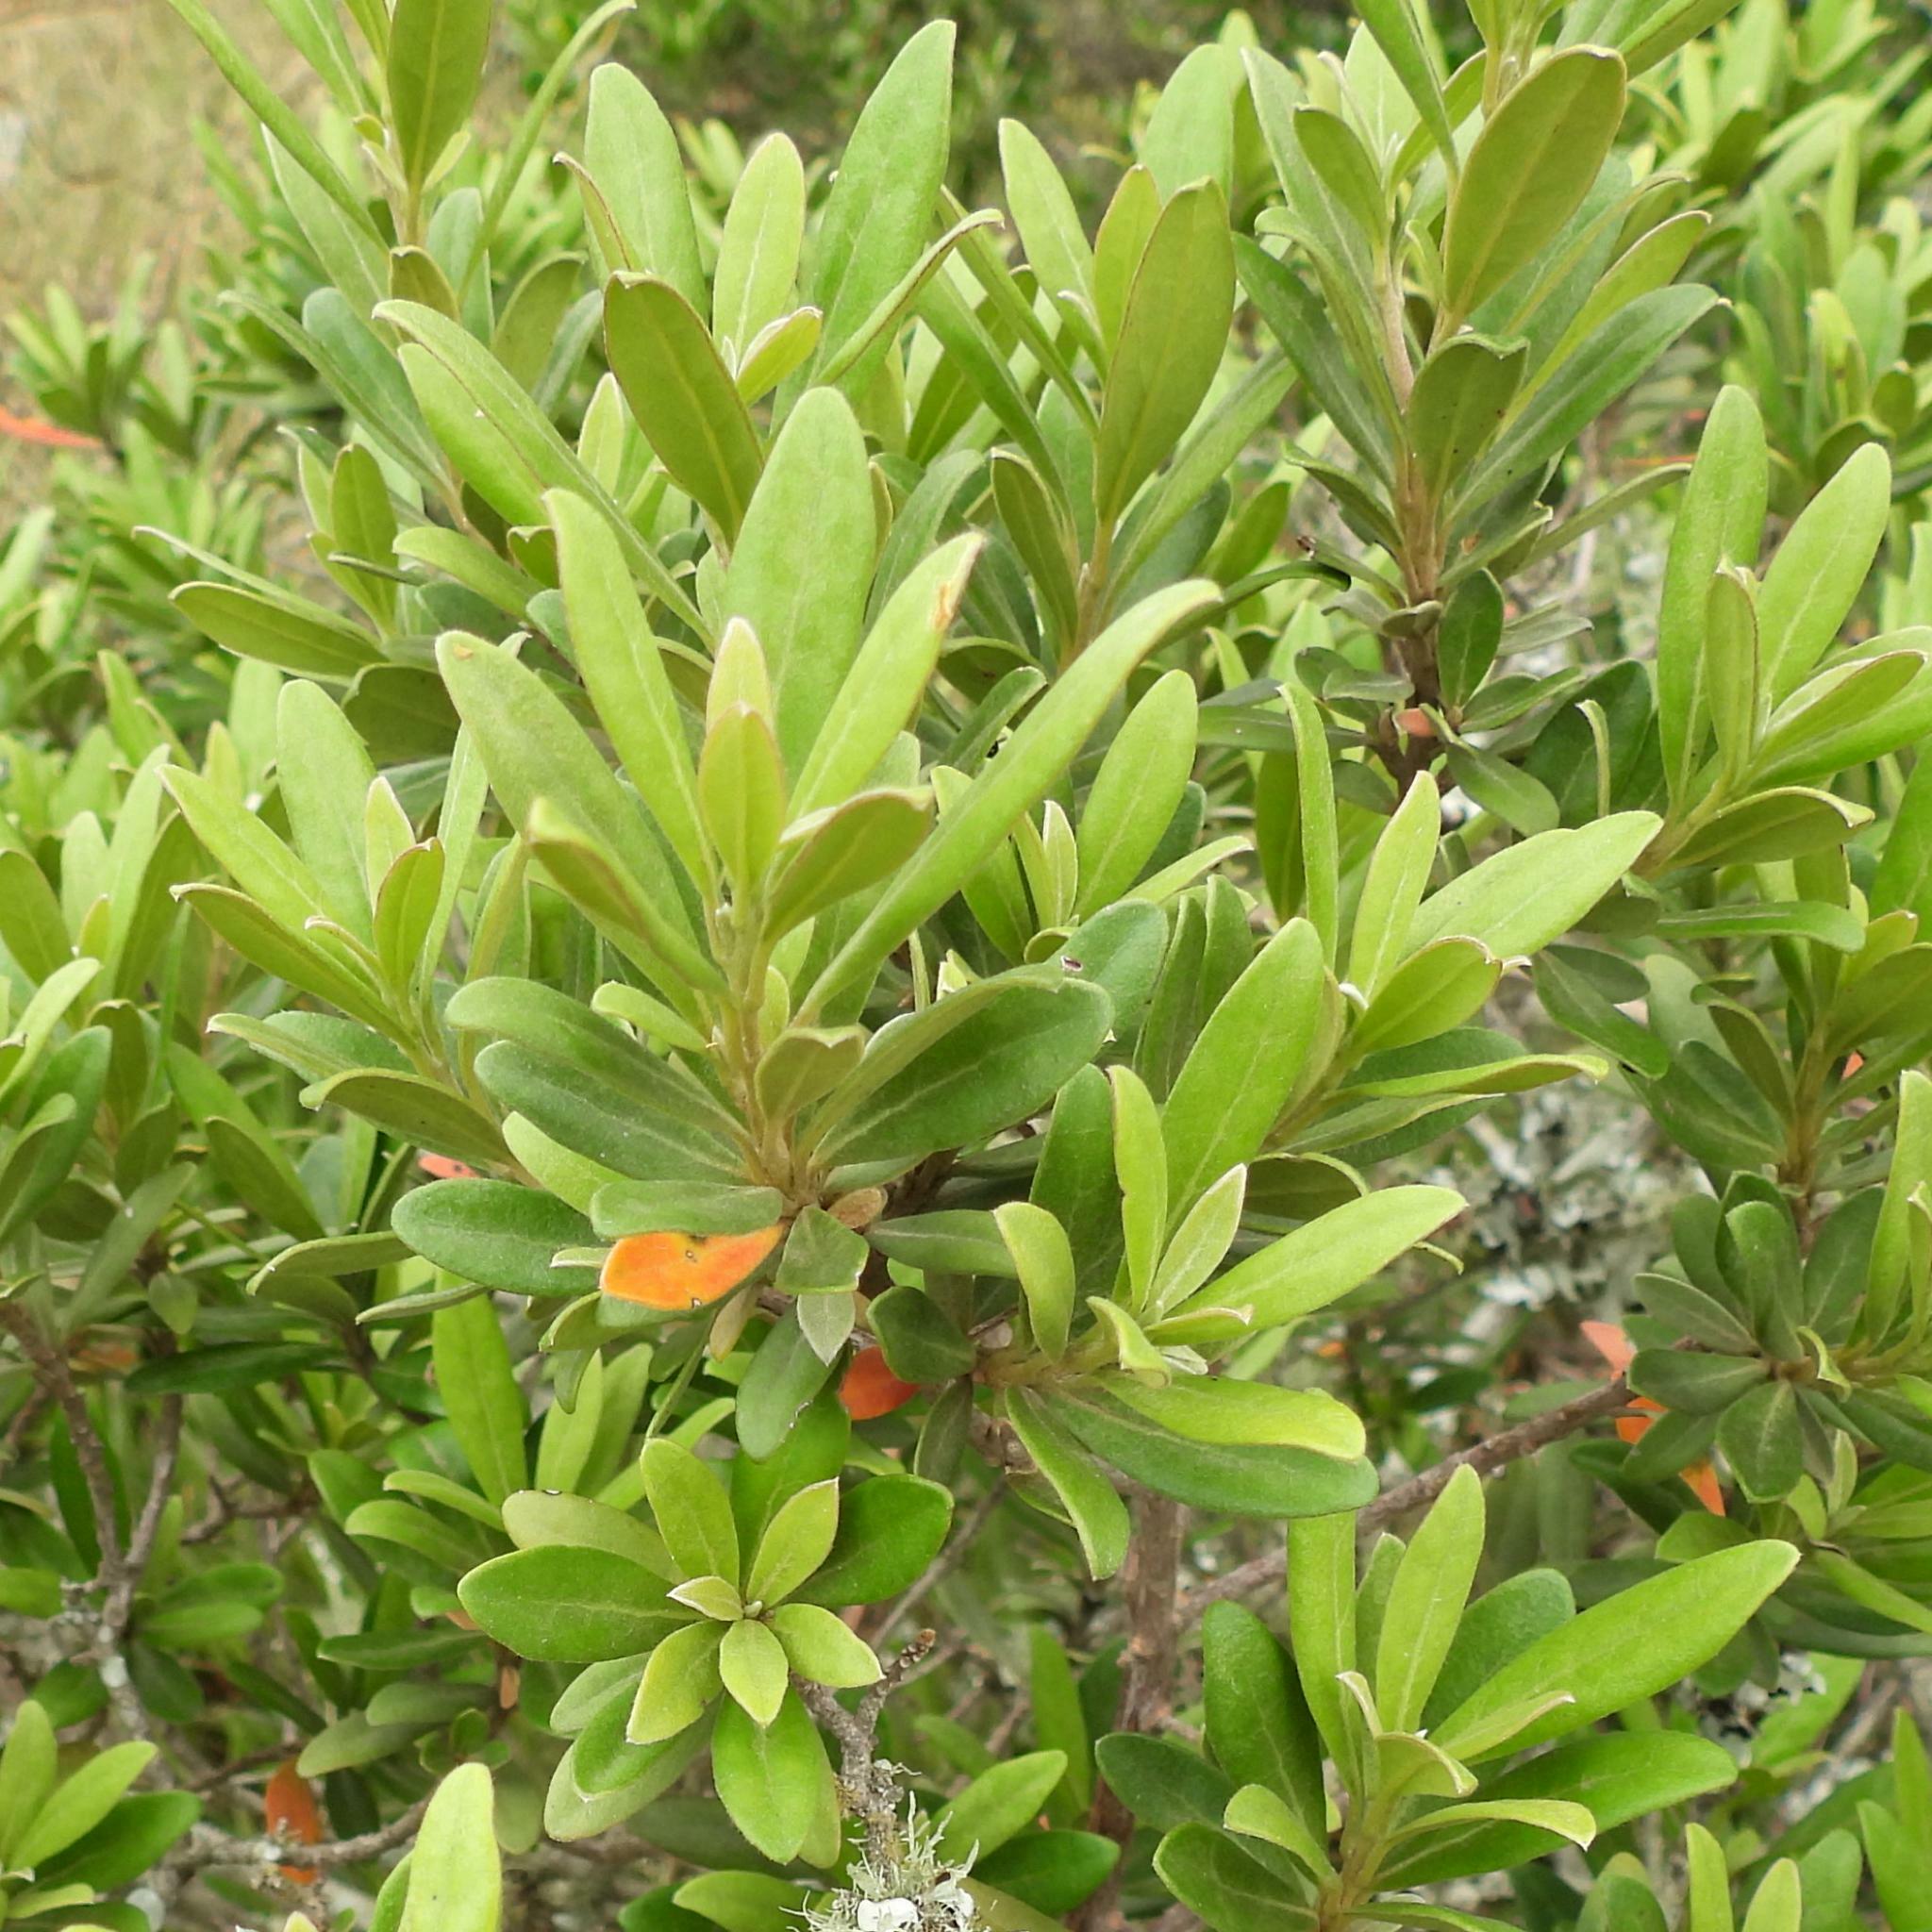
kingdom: Plantae
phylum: Tracheophyta
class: Magnoliopsida
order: Ericales
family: Ebenaceae
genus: Diospyros
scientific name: Diospyros dichrophylla
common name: Common star-apple
